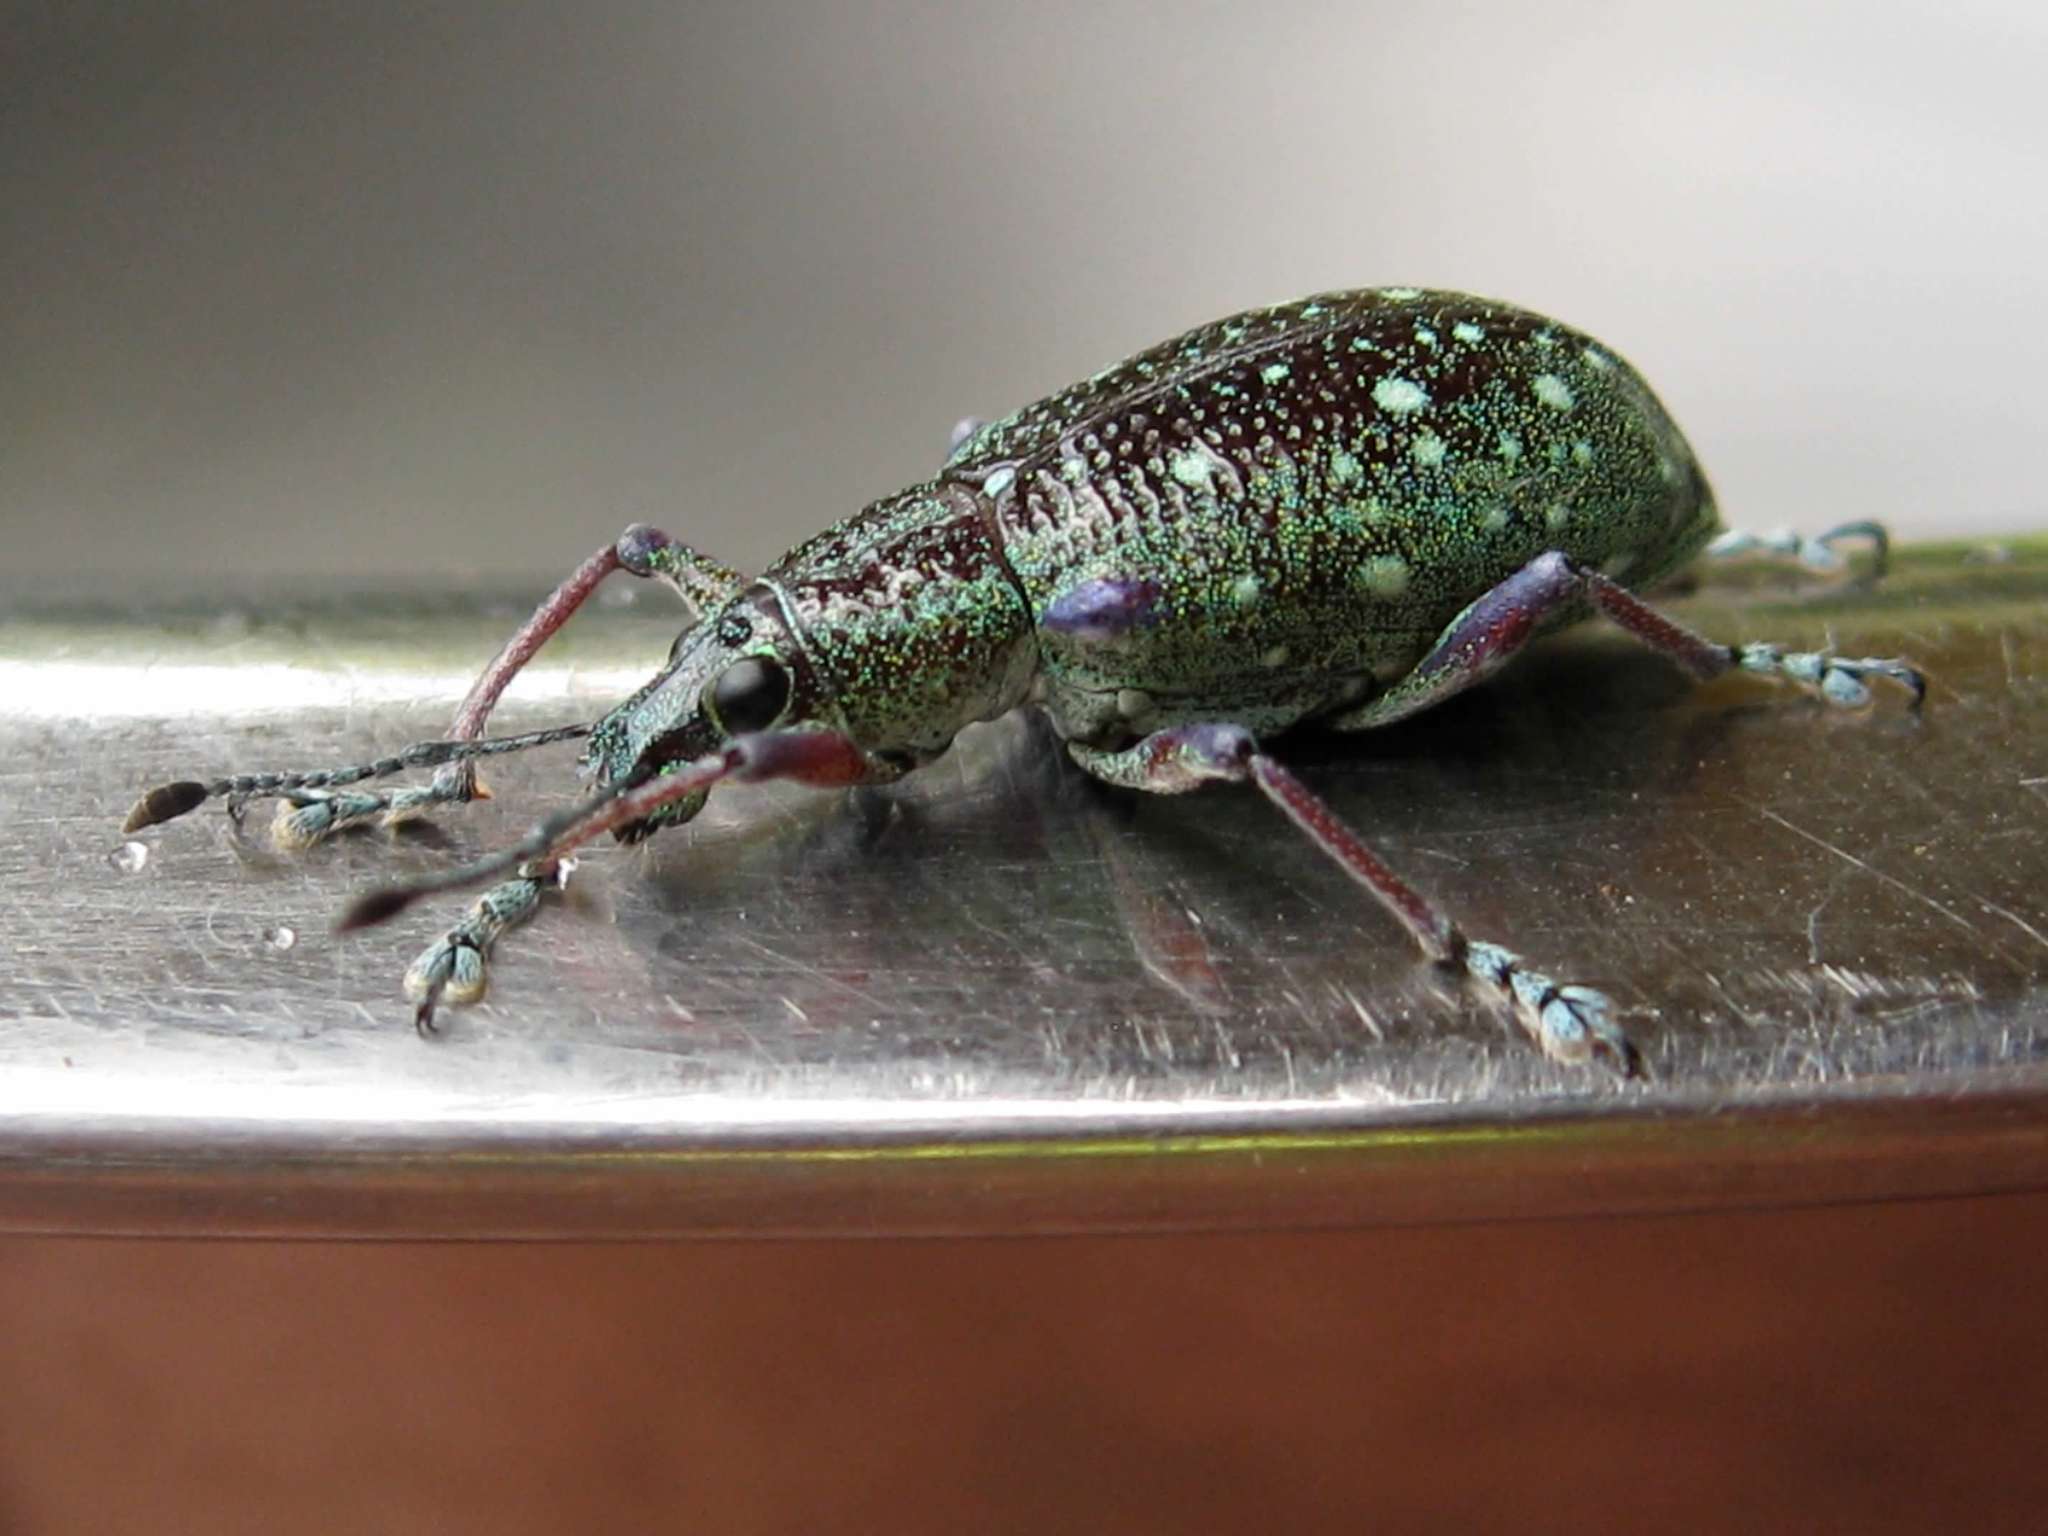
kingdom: Animalia
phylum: Arthropoda
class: Insecta
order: Coleoptera
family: Curculionidae
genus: Exophthalmus
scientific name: Exophthalmus jekelianus
